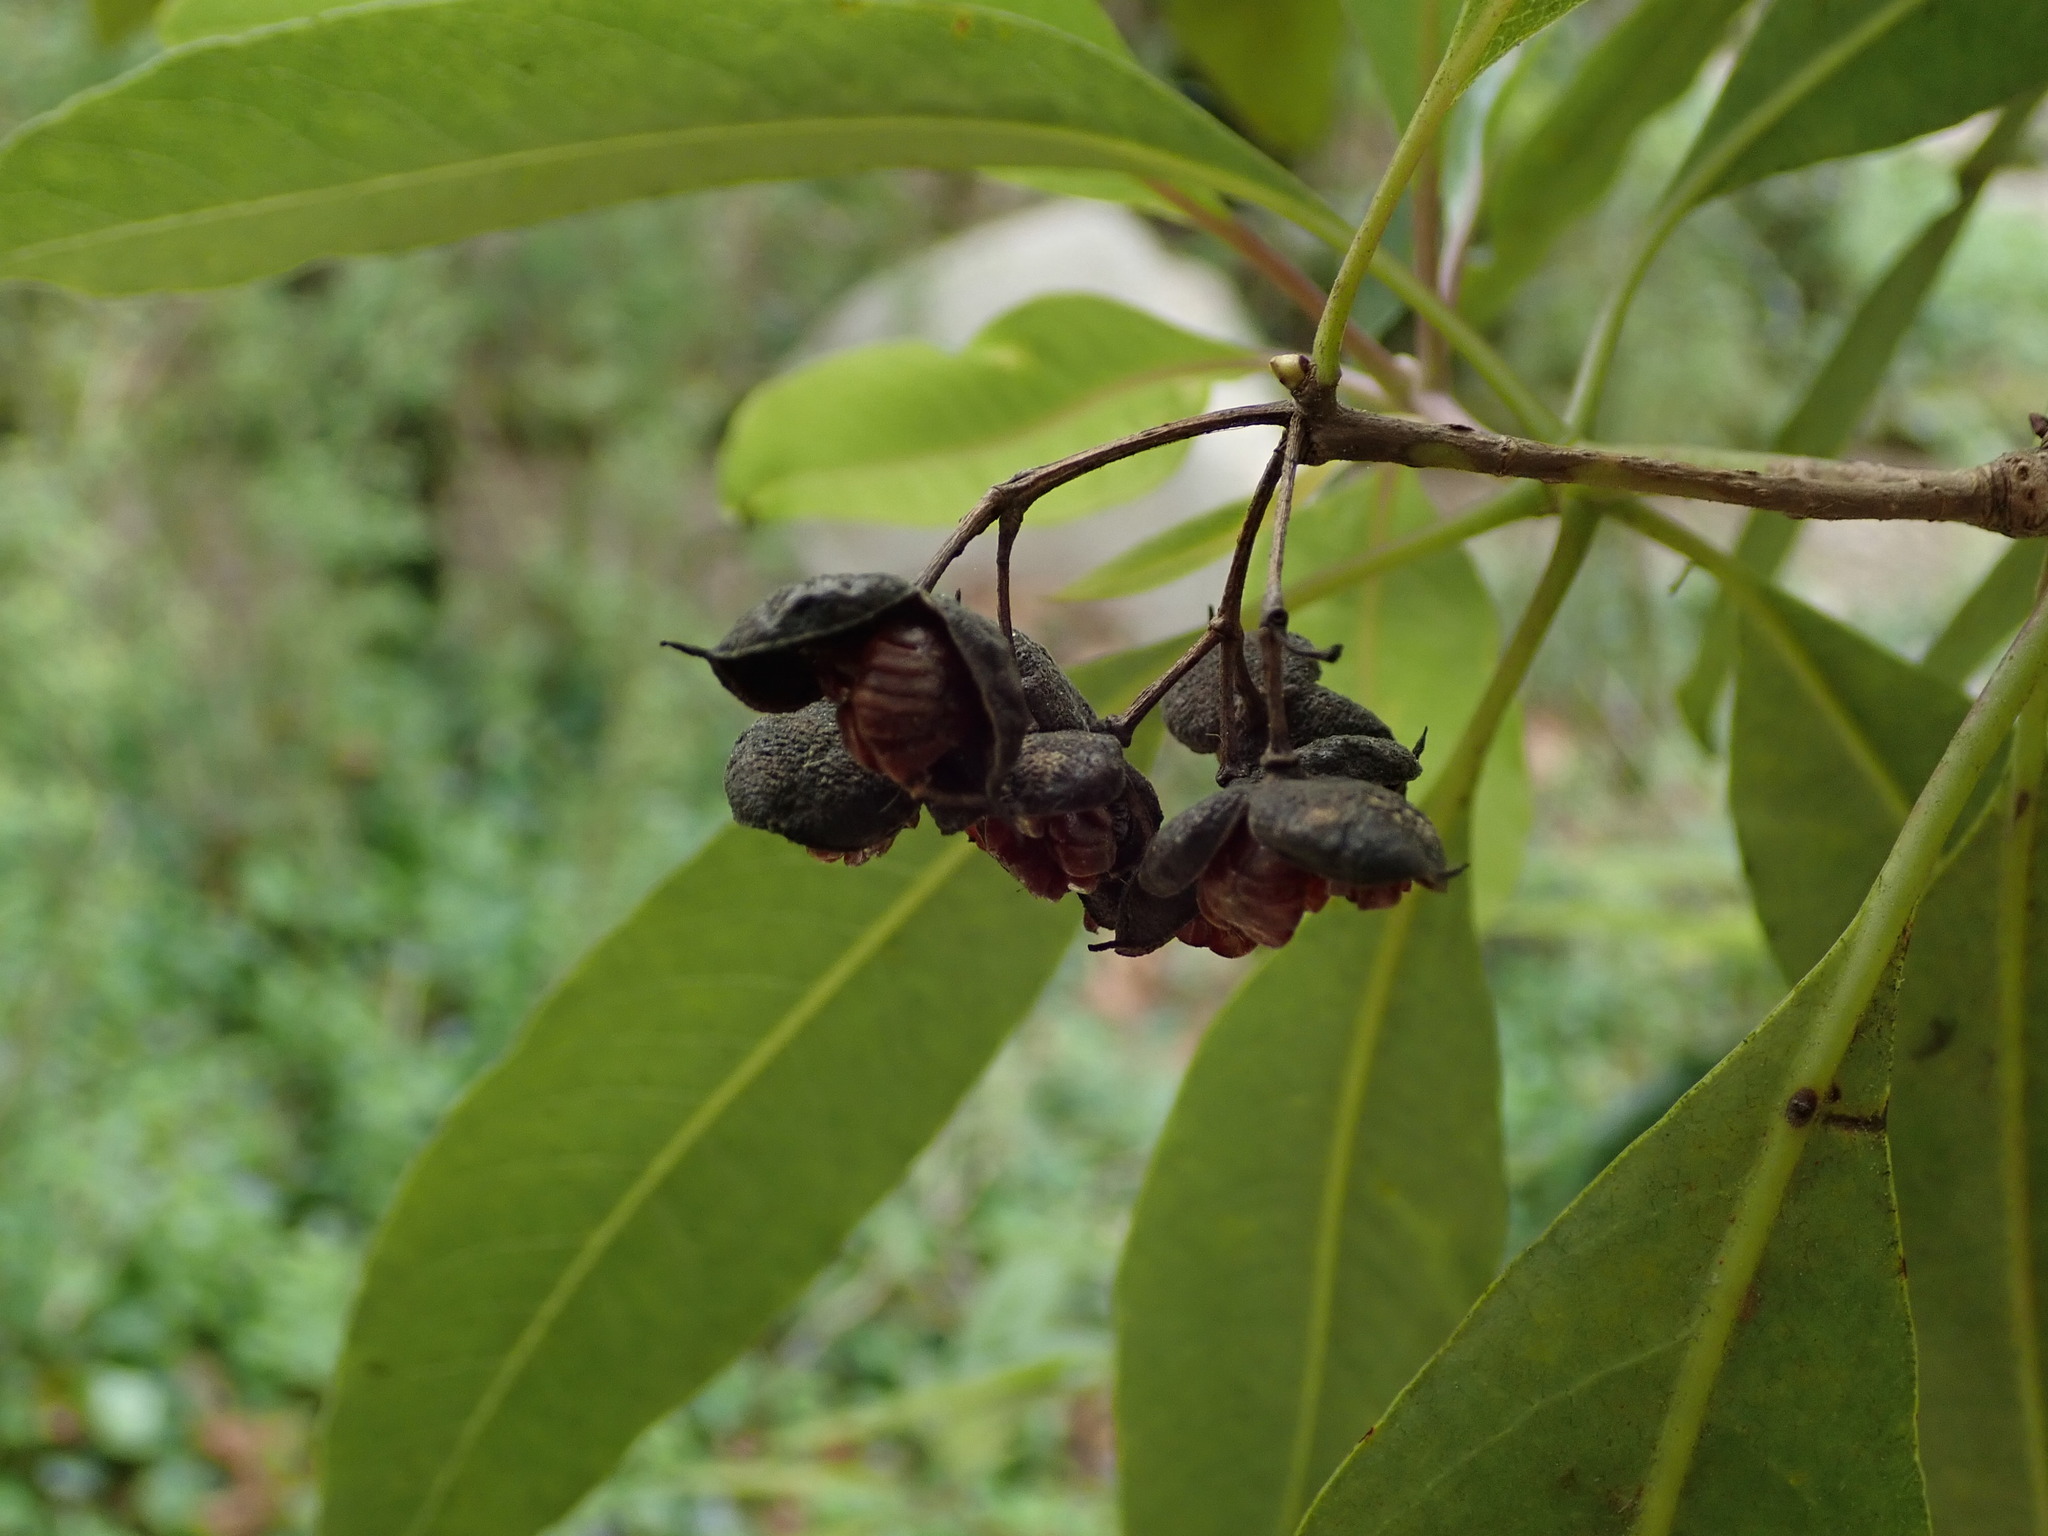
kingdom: Plantae
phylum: Tracheophyta
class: Magnoliopsida
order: Apiales
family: Pittosporaceae
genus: Pittosporum
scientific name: Pittosporum undulatum
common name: Australian cheesewood
